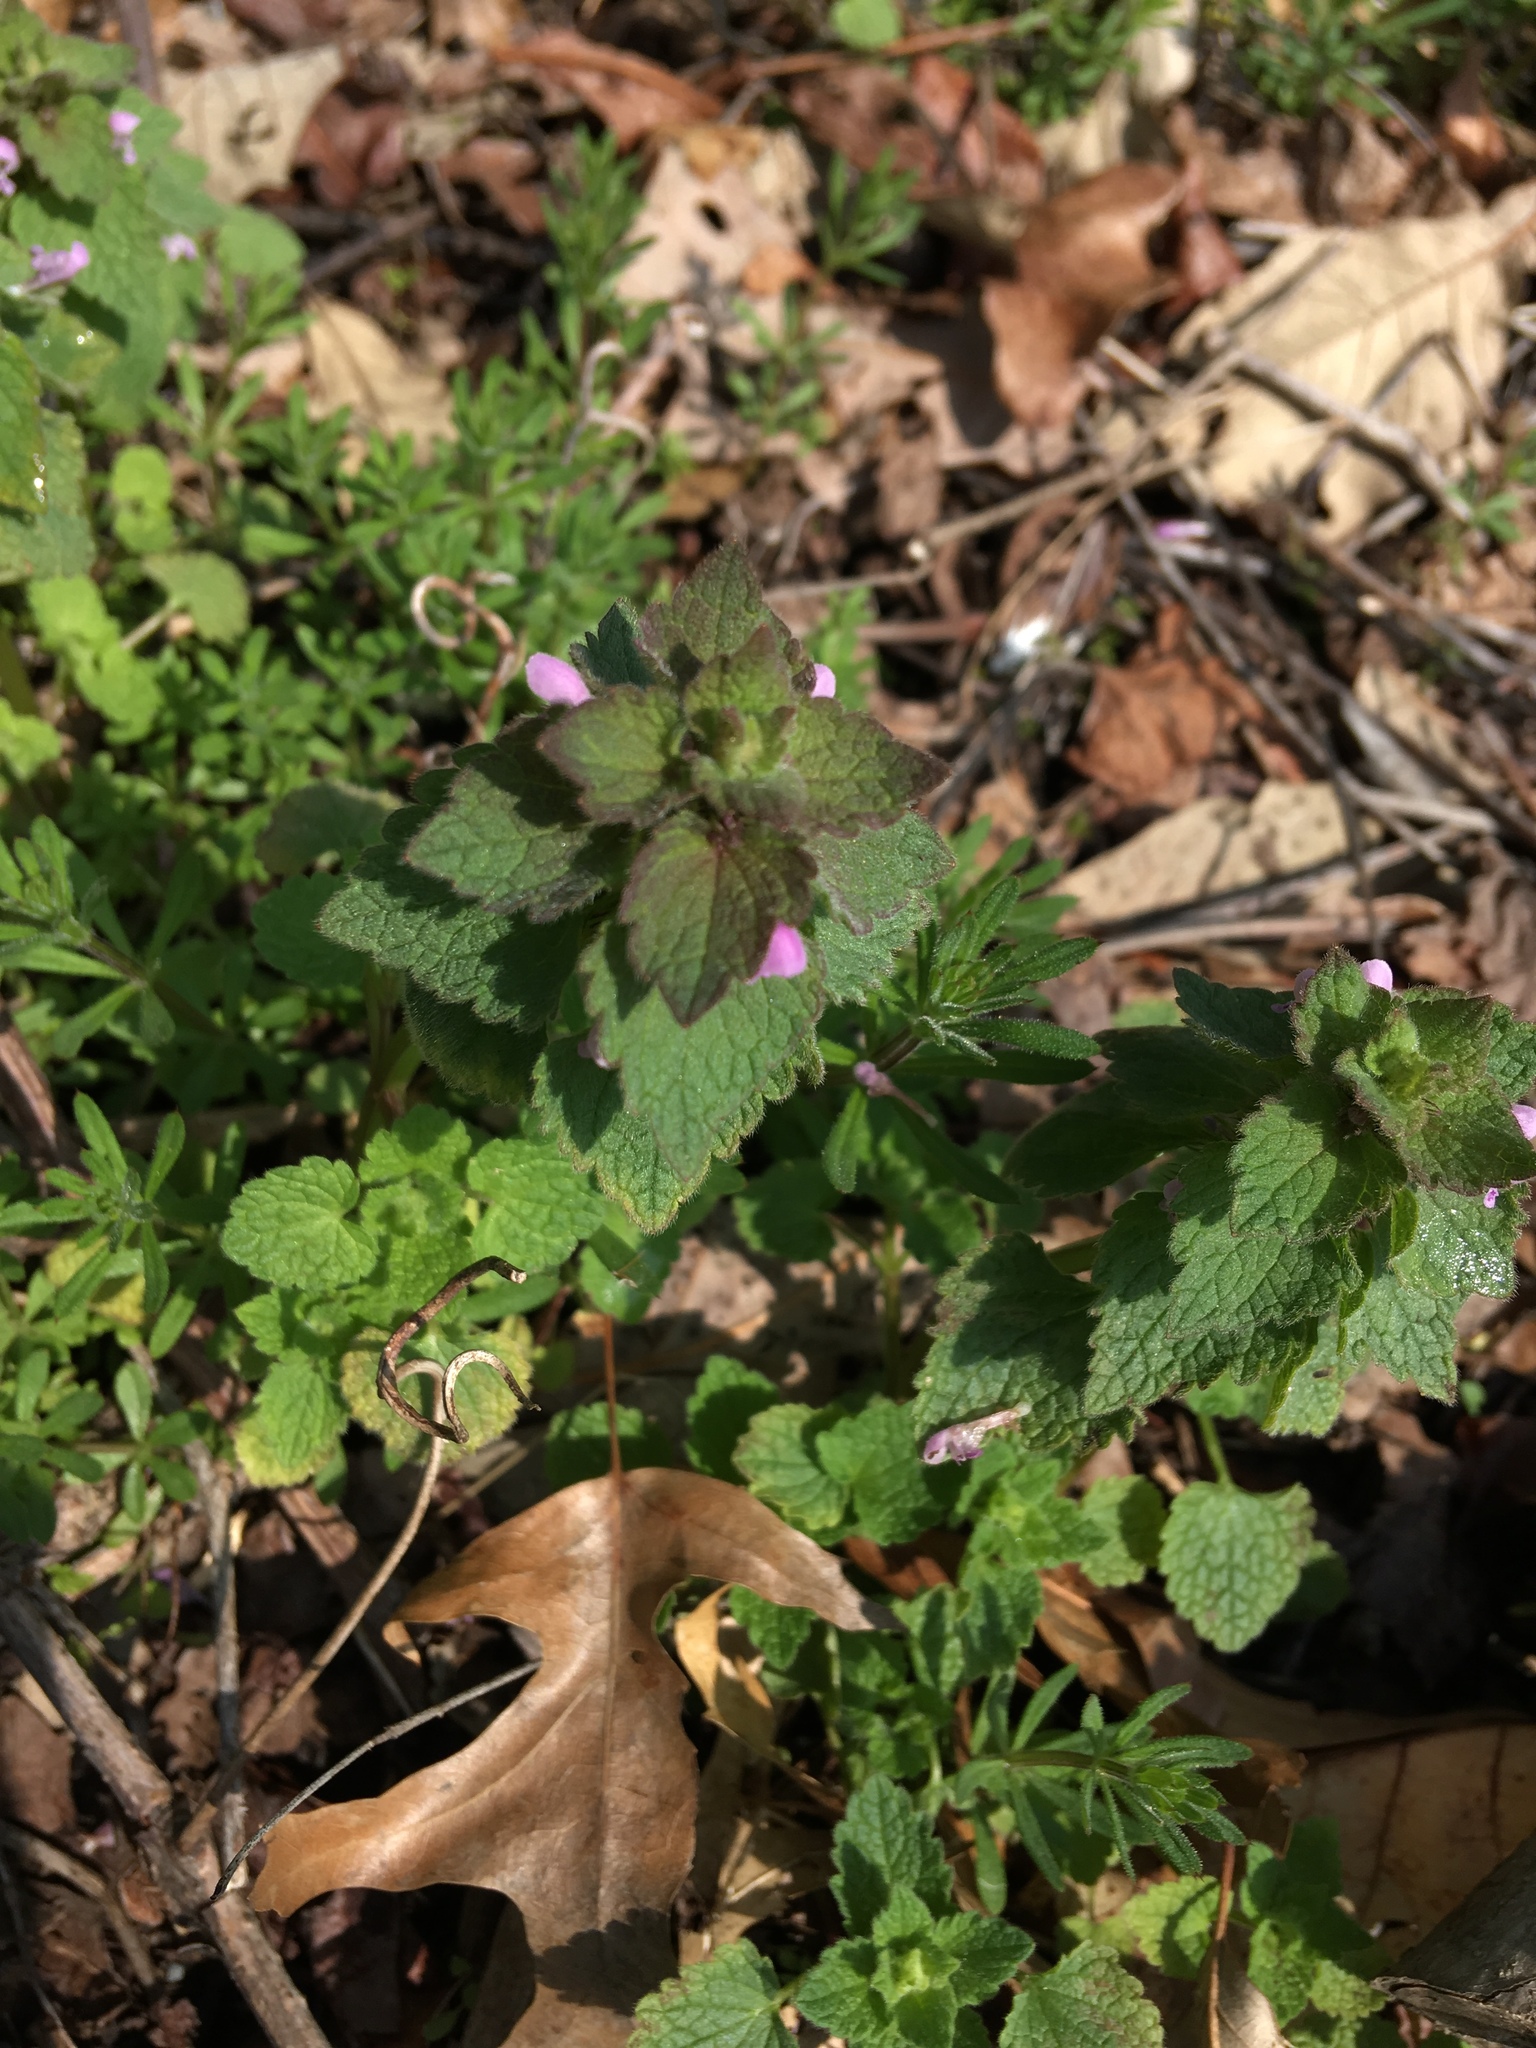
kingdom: Plantae
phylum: Tracheophyta
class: Magnoliopsida
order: Lamiales
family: Lamiaceae
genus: Lamium
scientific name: Lamium purpureum
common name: Red dead-nettle
